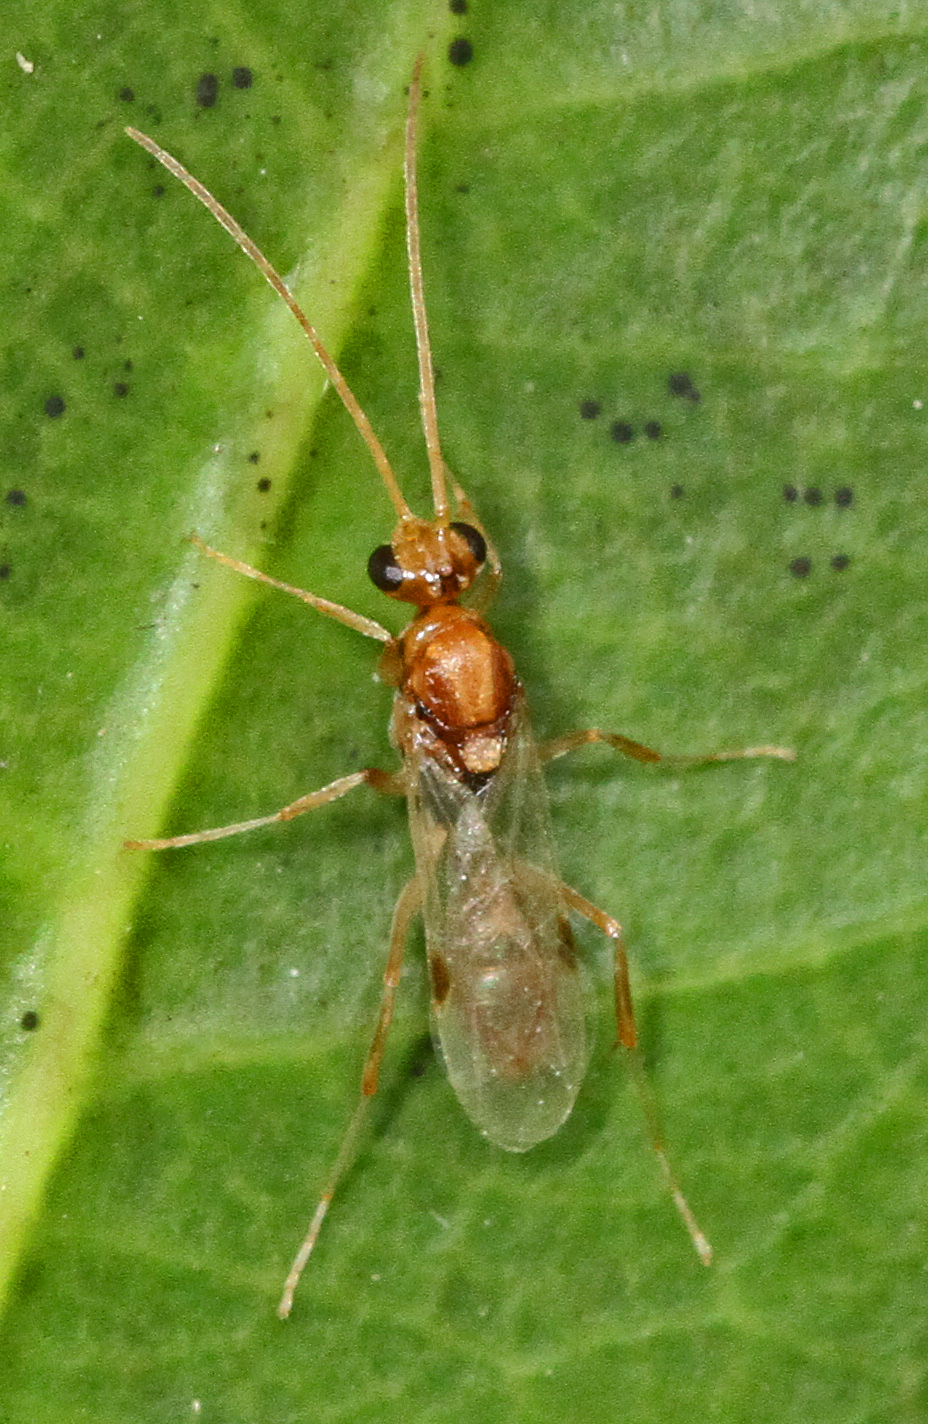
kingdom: Animalia
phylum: Arthropoda
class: Insecta
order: Hymenoptera
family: Formicidae
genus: Odontomachus
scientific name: Odontomachus brunneus
